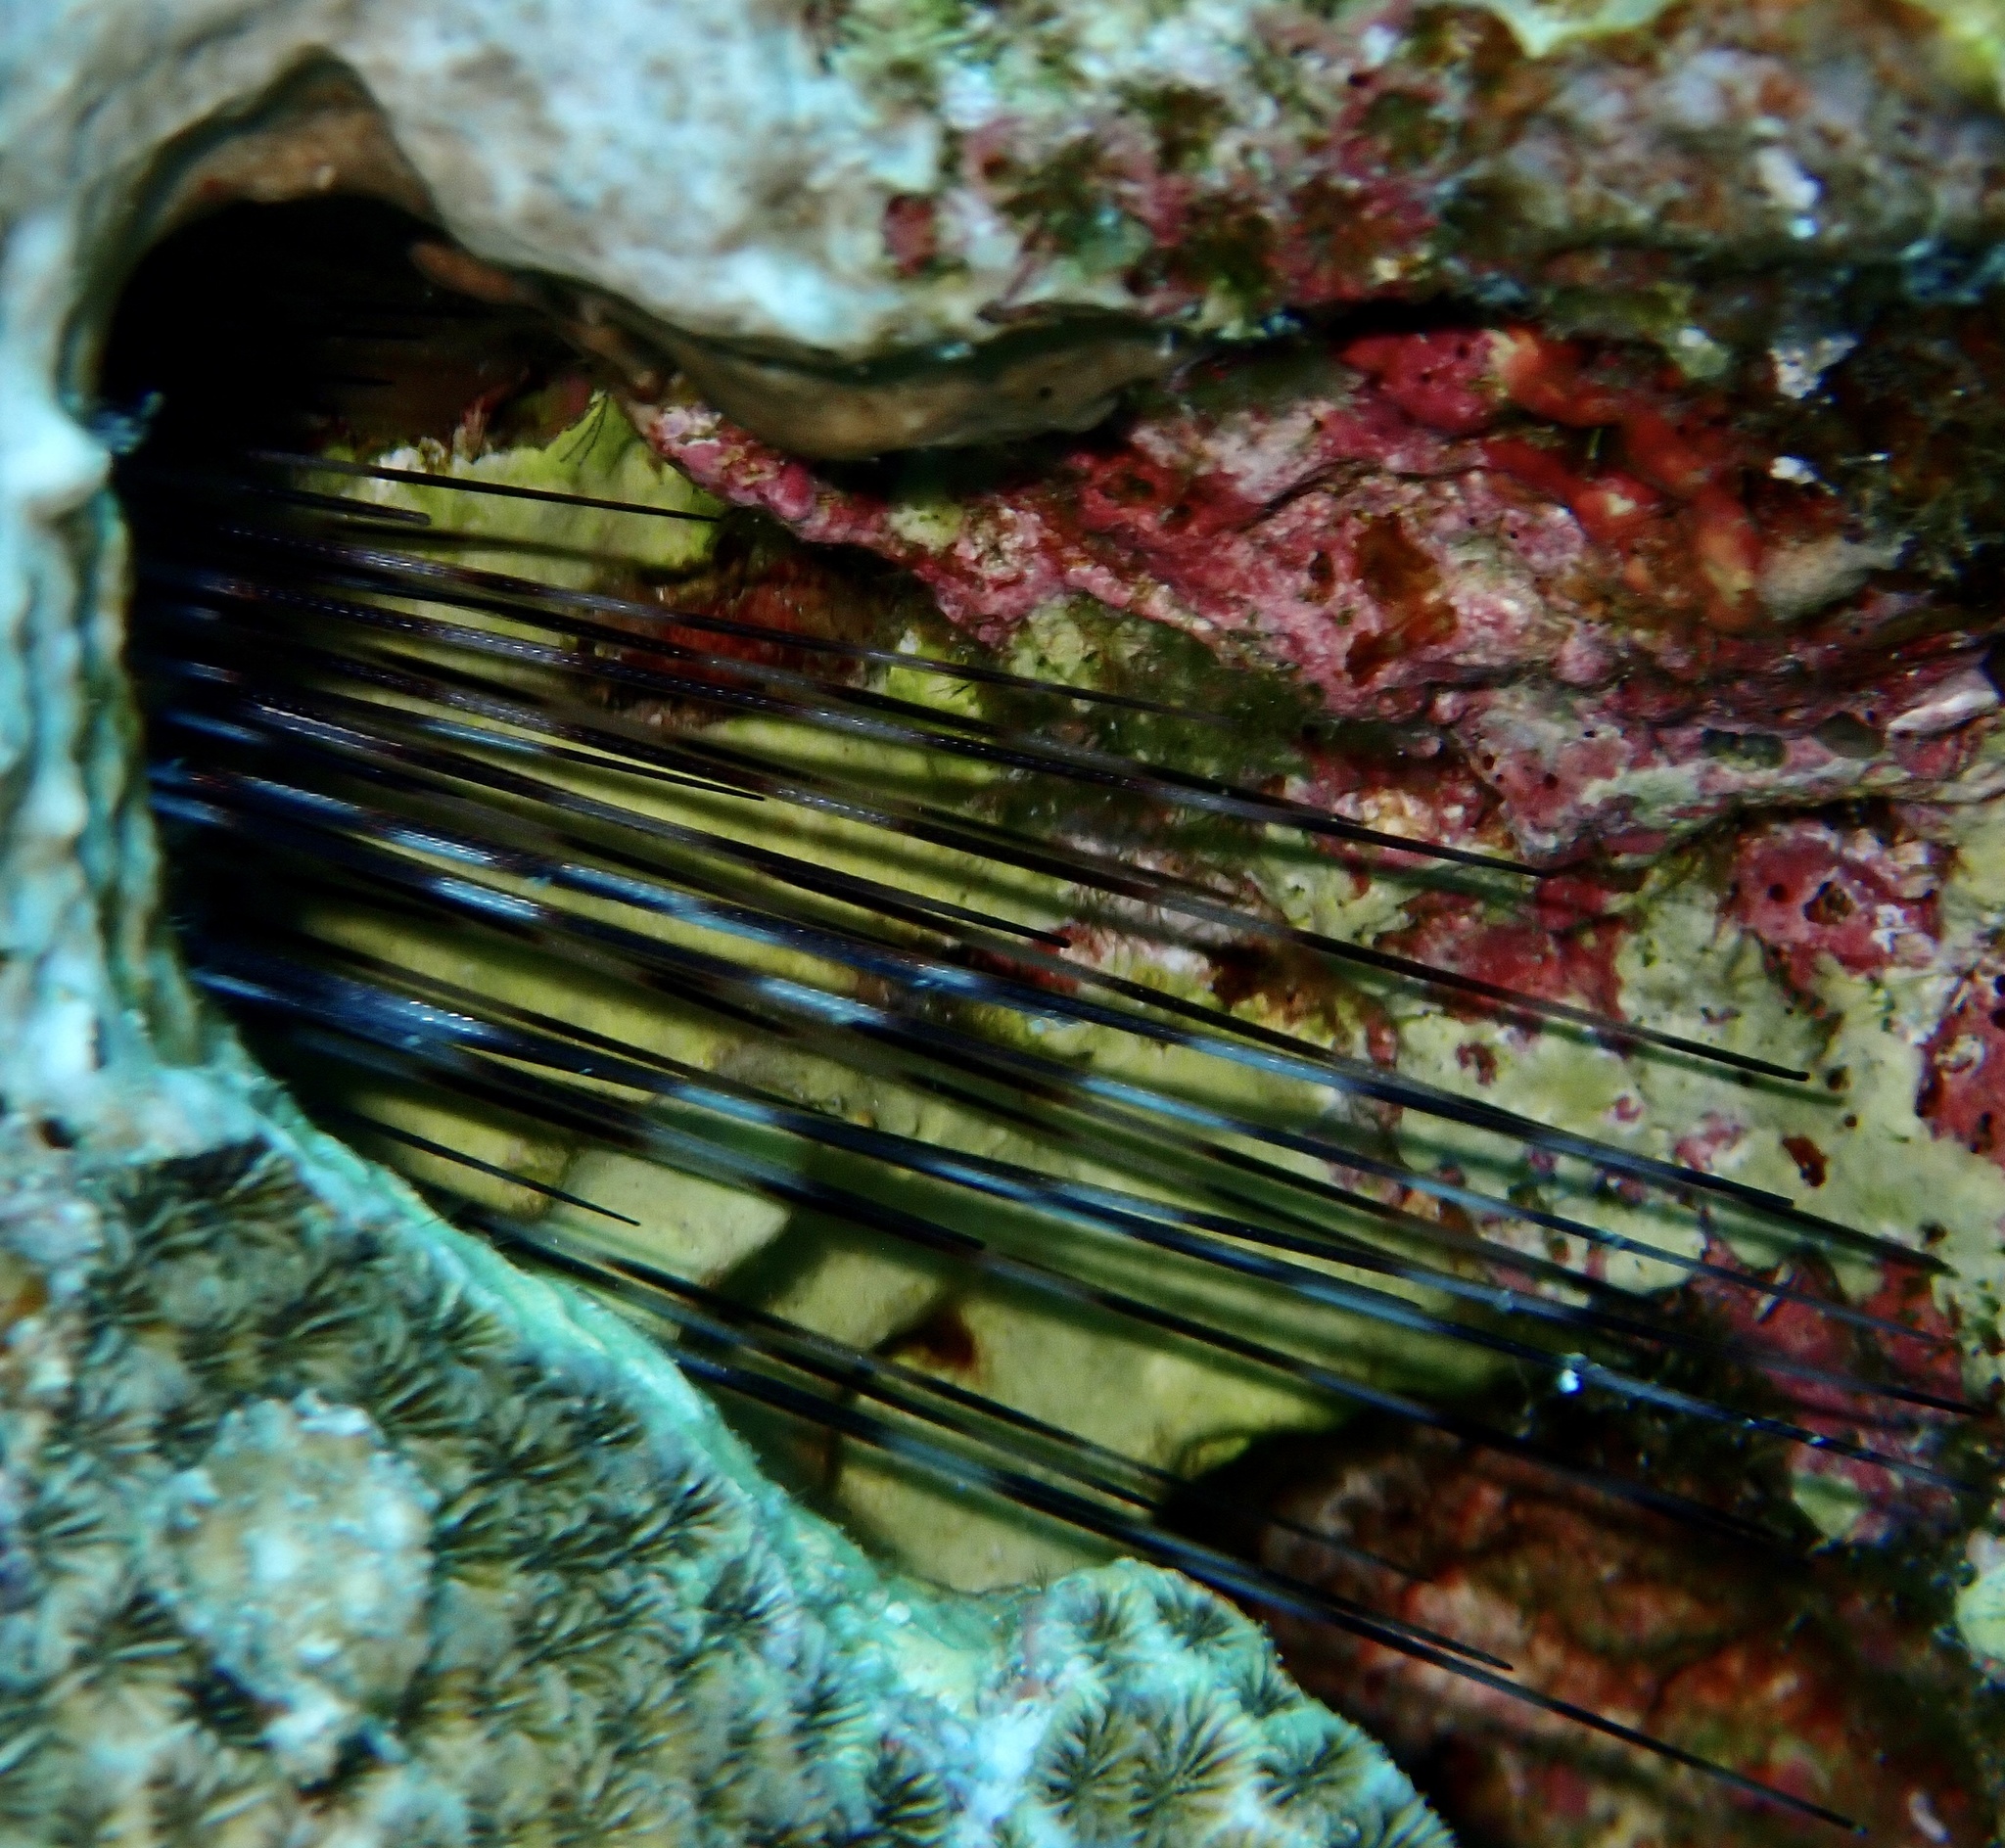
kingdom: Animalia
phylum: Echinodermata
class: Echinoidea
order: Diadematoida
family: Diadematidae
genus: Diadema
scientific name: Diadema
